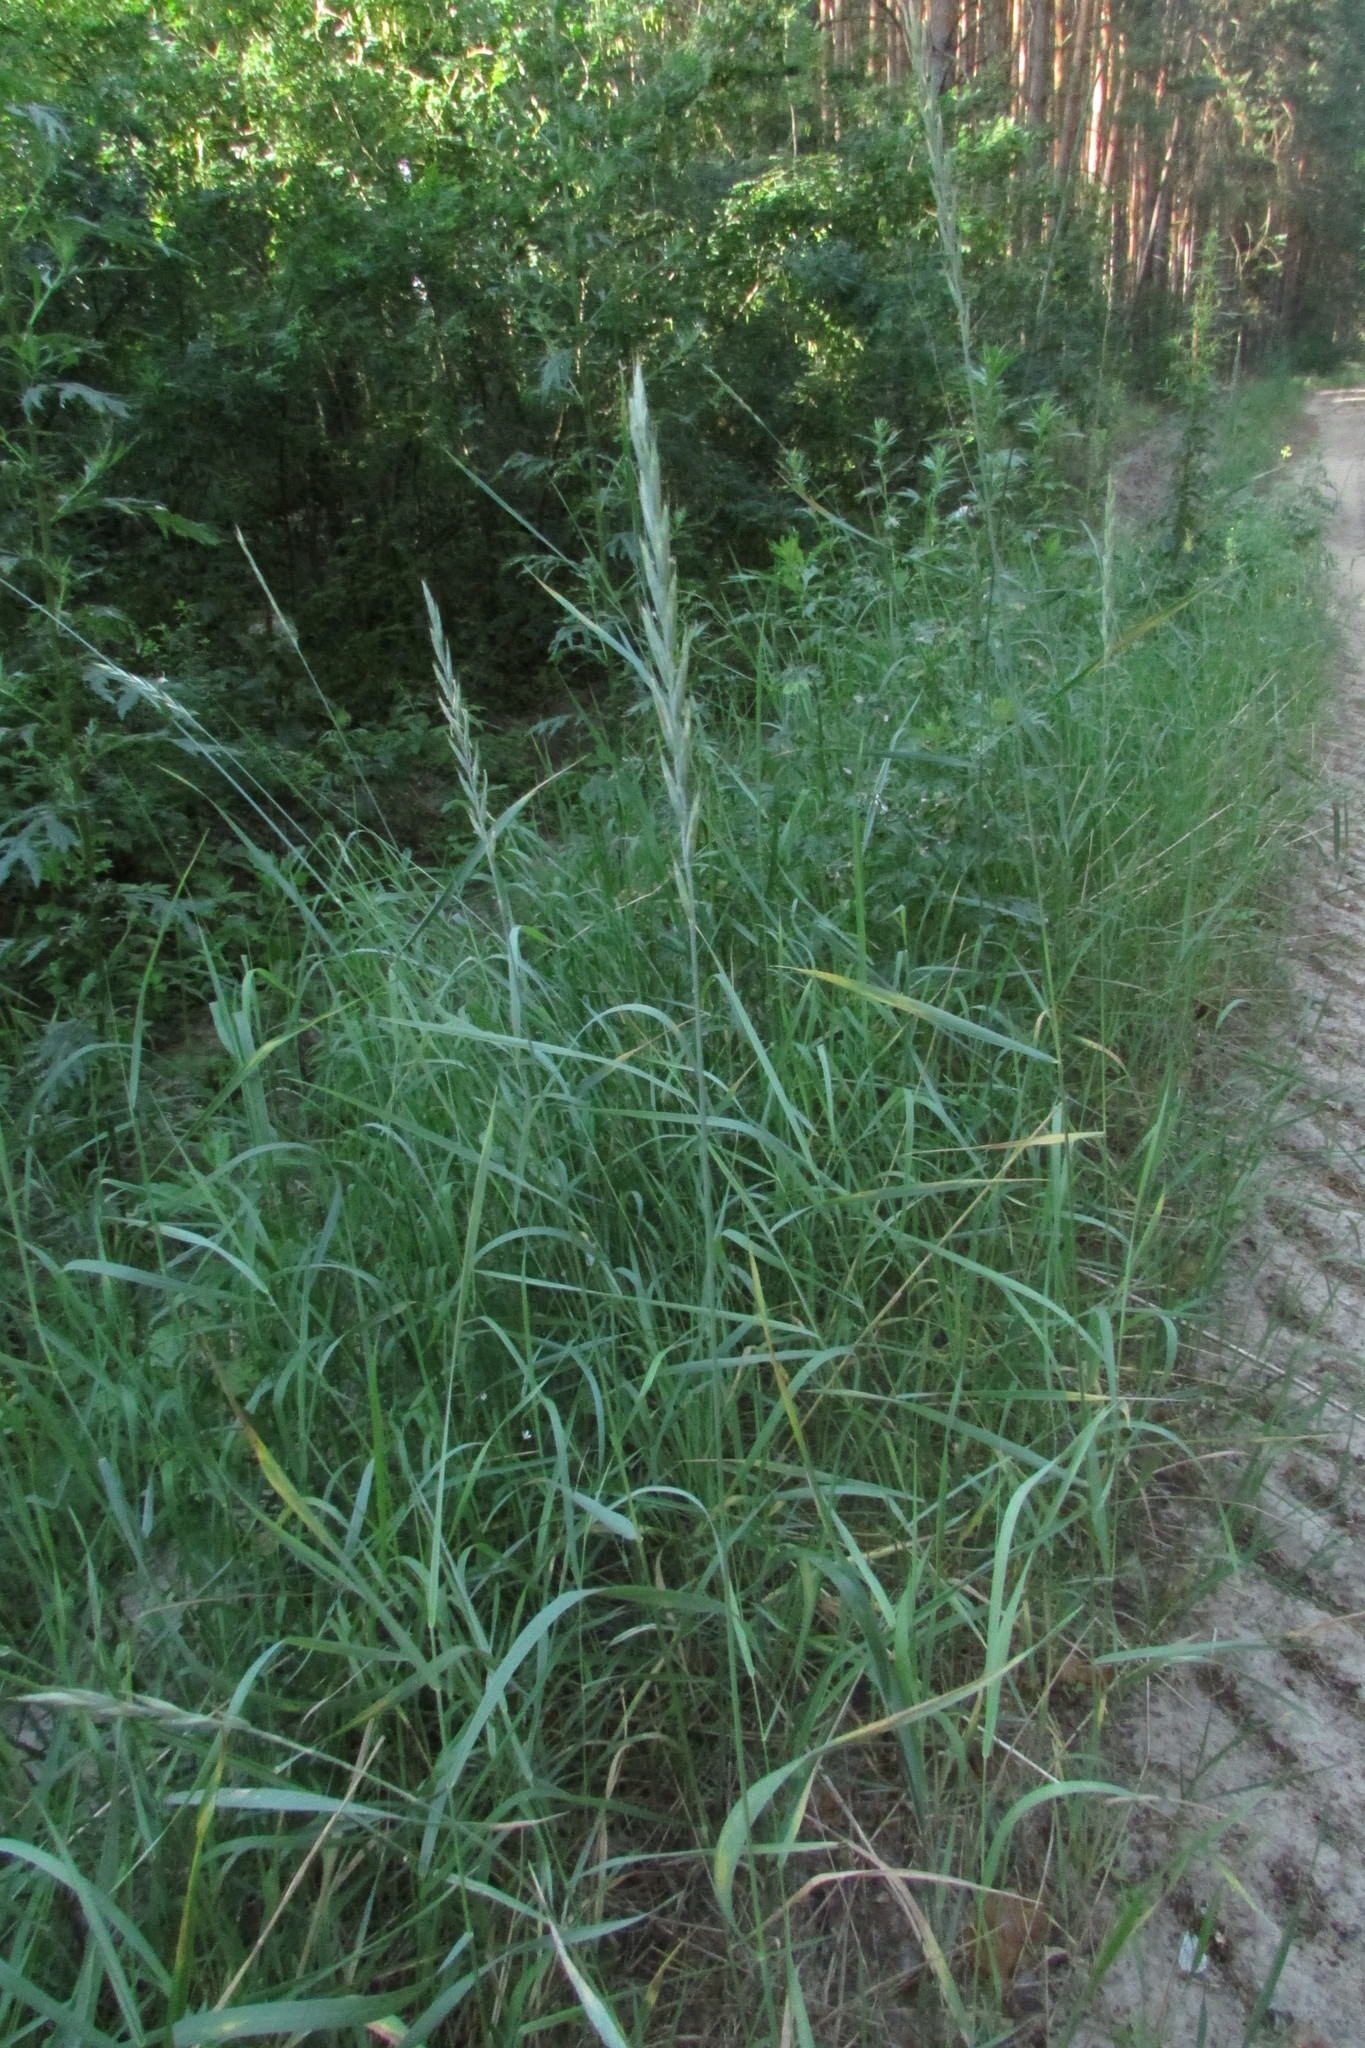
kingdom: Plantae
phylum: Tracheophyta
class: Liliopsida
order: Poales
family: Poaceae
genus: Elymus
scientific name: Elymus repens
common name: Quackgrass
